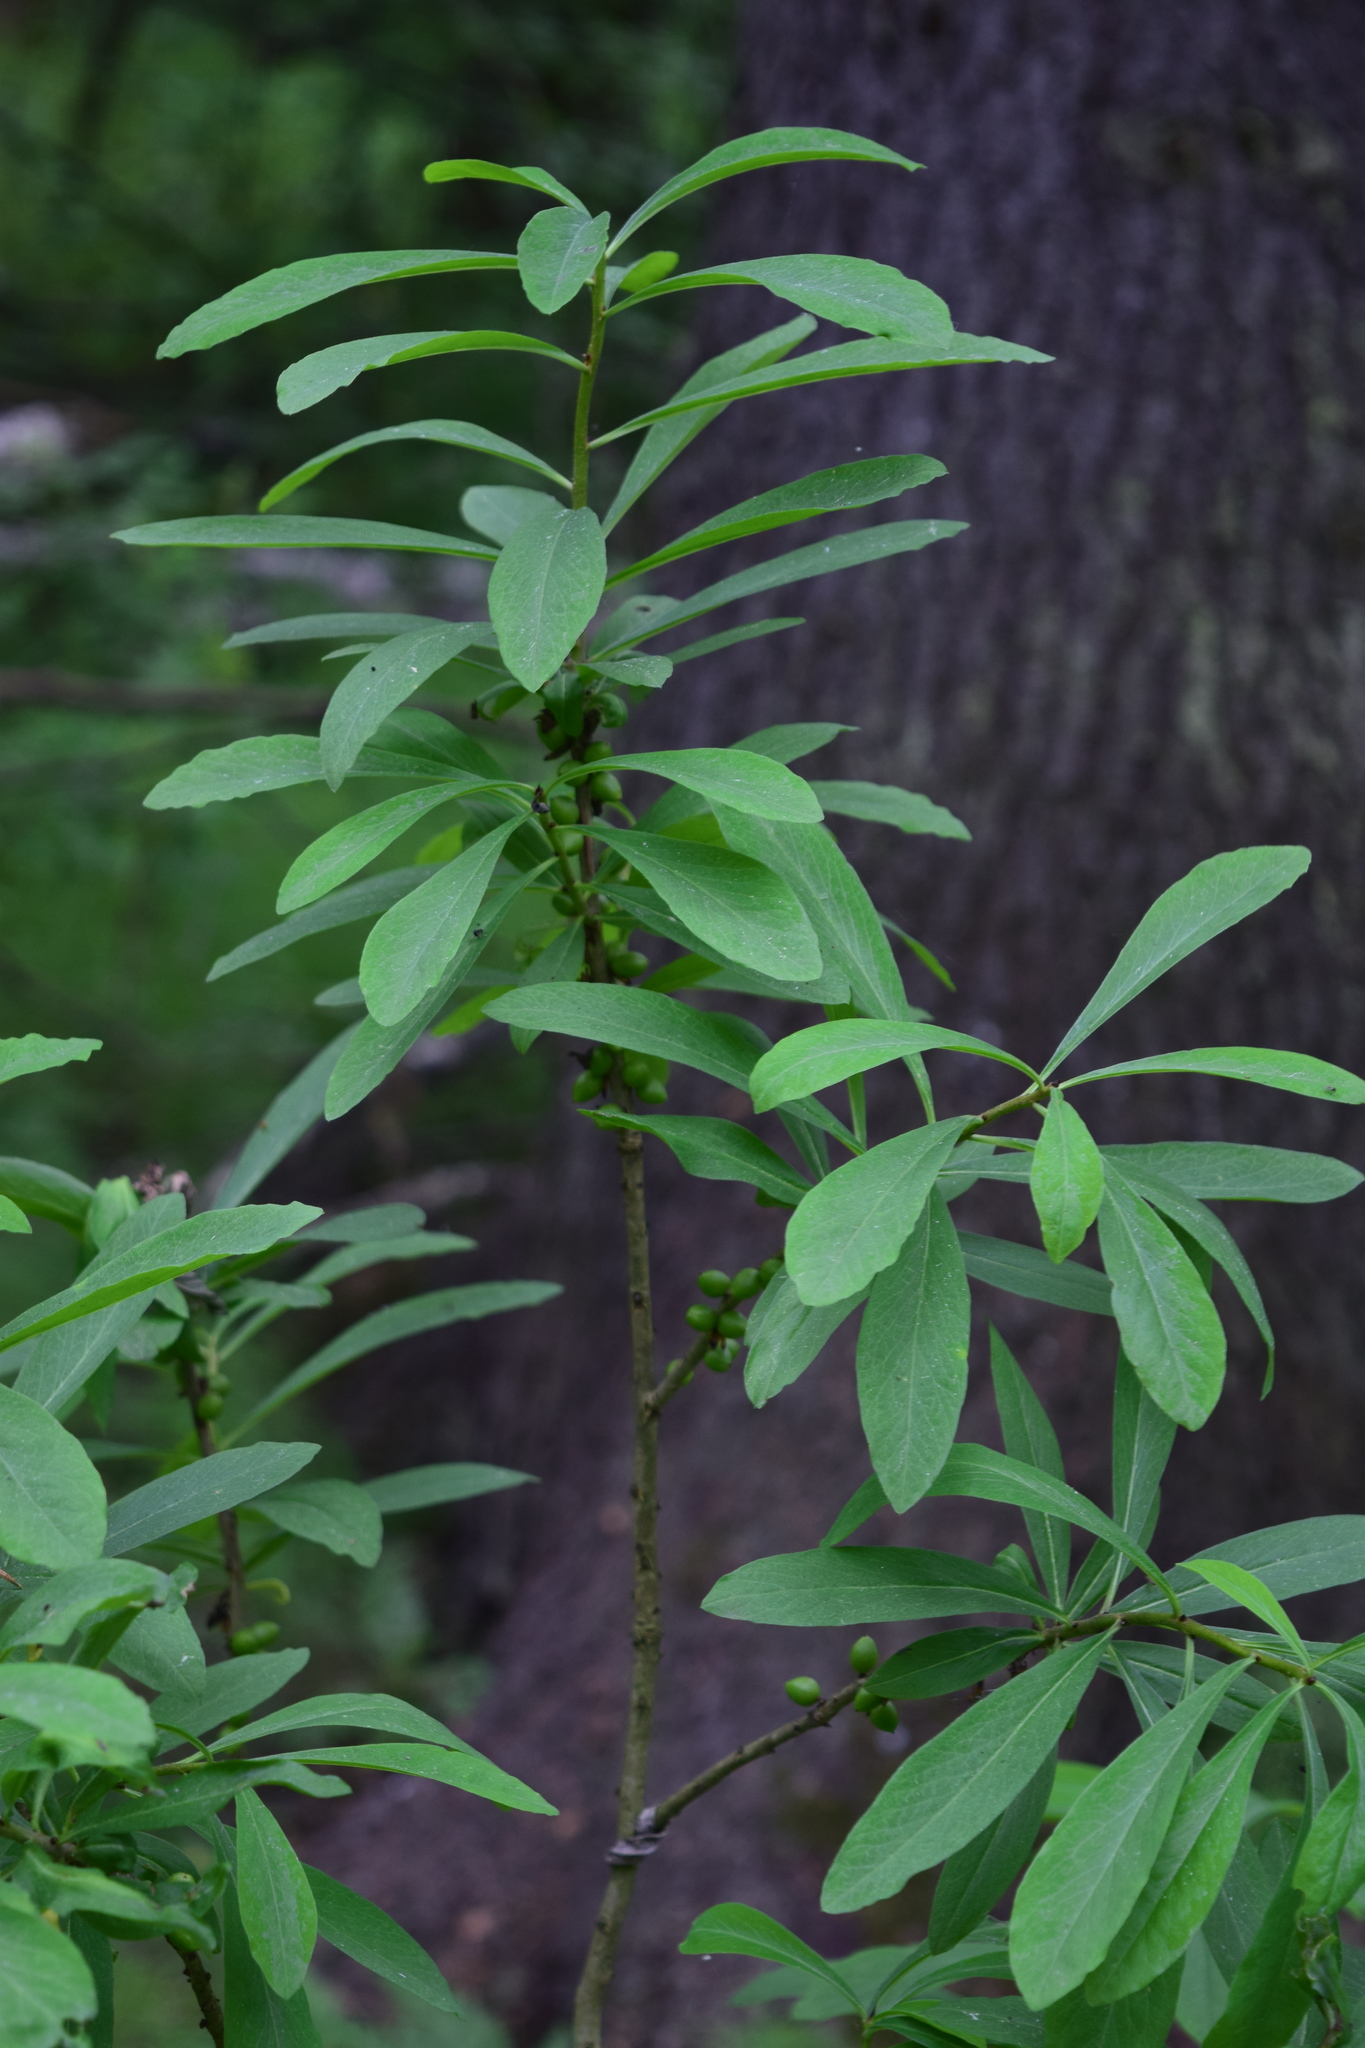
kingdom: Plantae
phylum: Tracheophyta
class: Magnoliopsida
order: Malvales
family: Thymelaeaceae
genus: Daphne
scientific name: Daphne mezereum
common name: Mezereon
